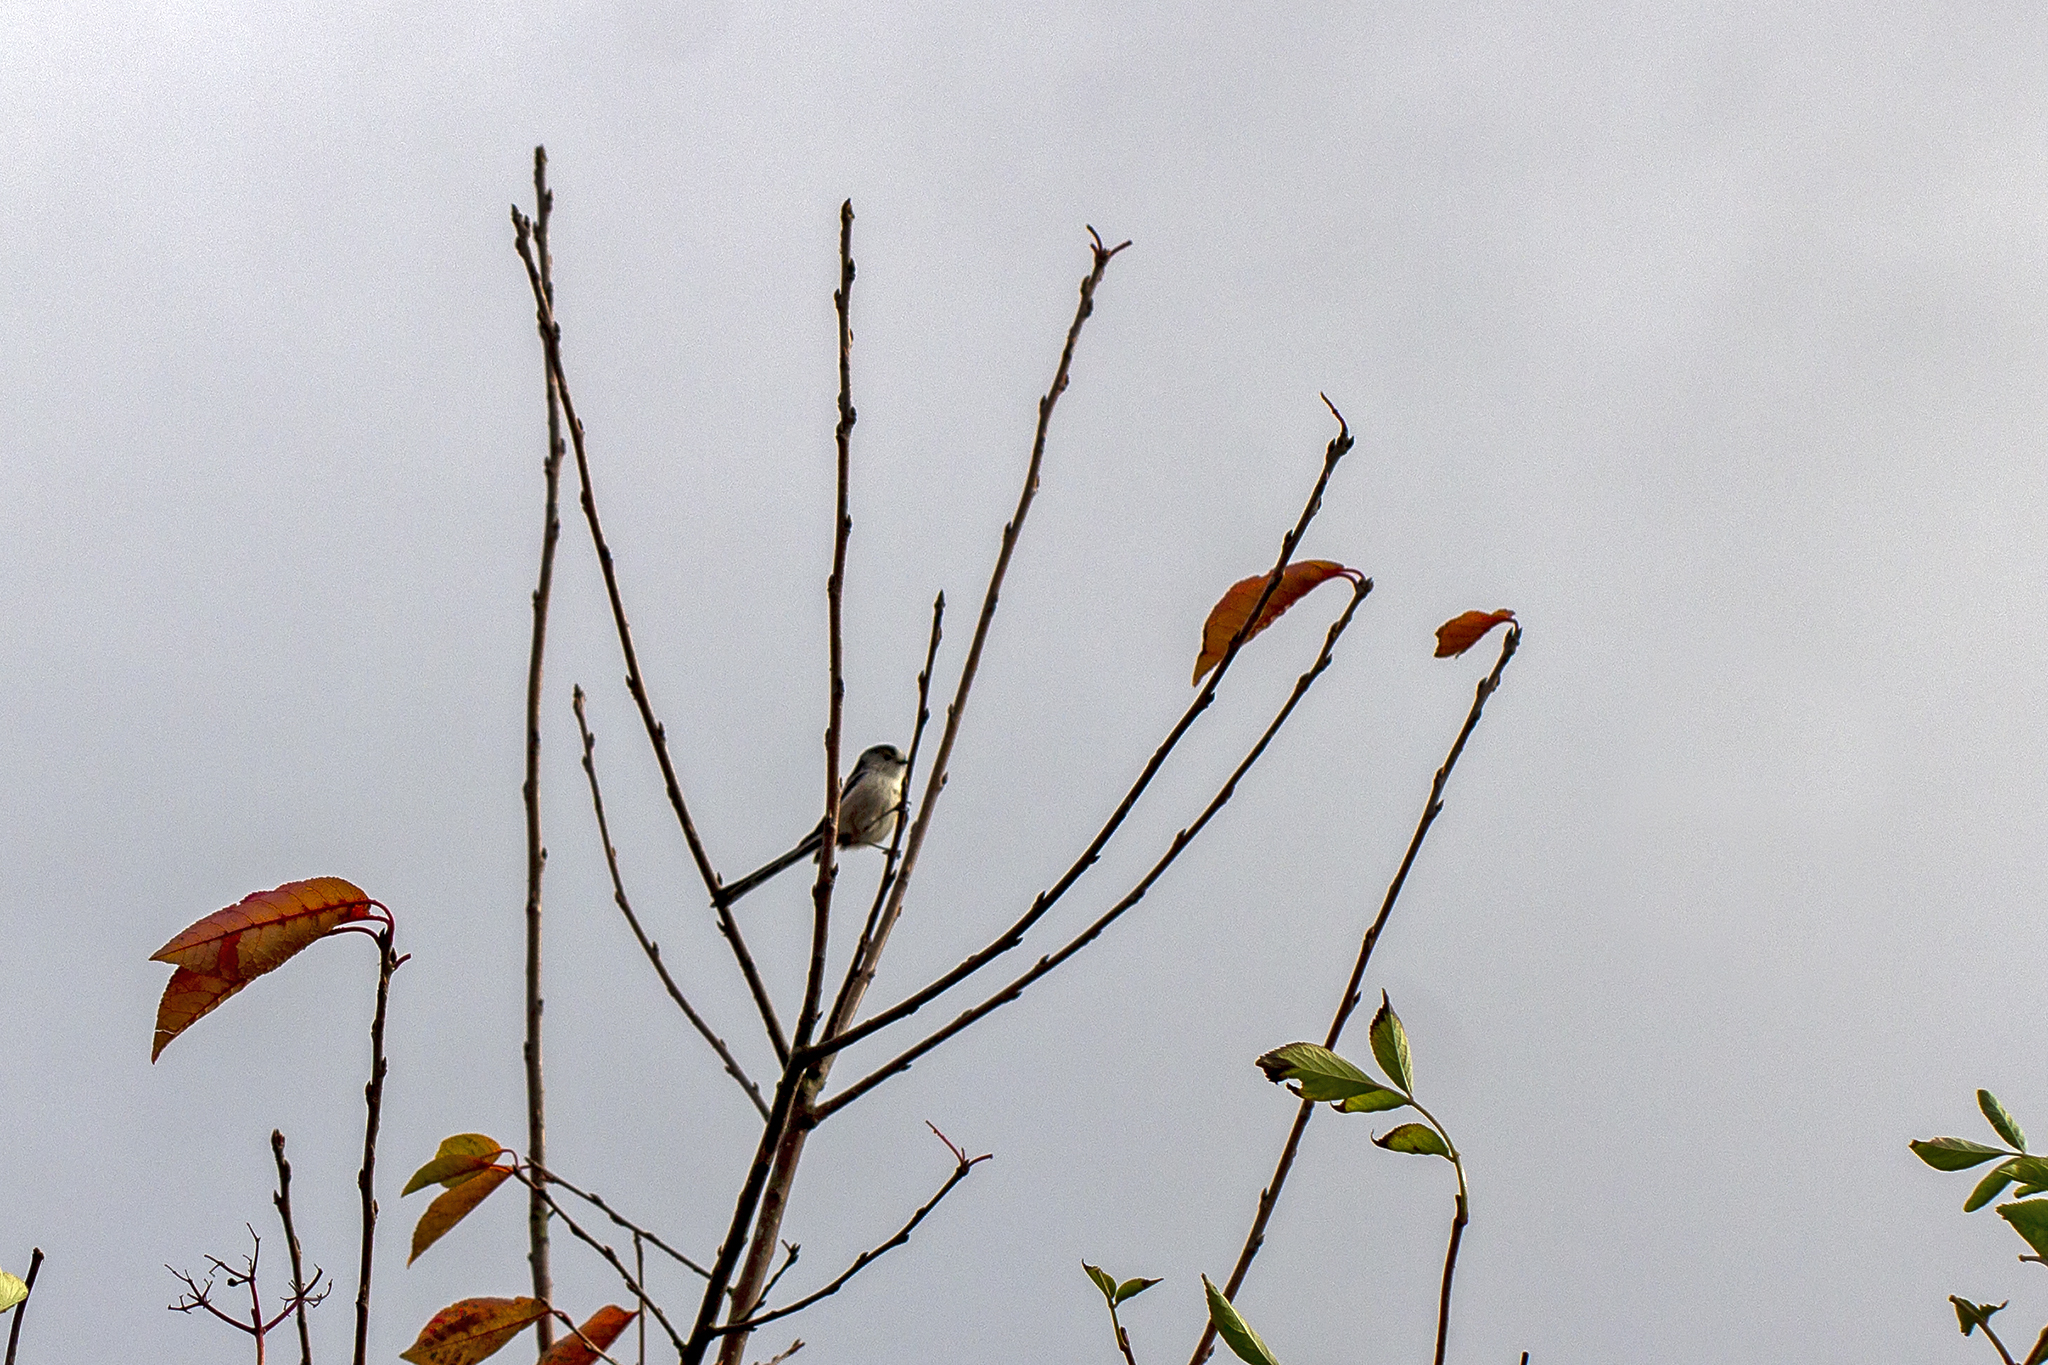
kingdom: Animalia
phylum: Chordata
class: Aves
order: Passeriformes
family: Aegithalidae
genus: Aegithalos
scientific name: Aegithalos caudatus
